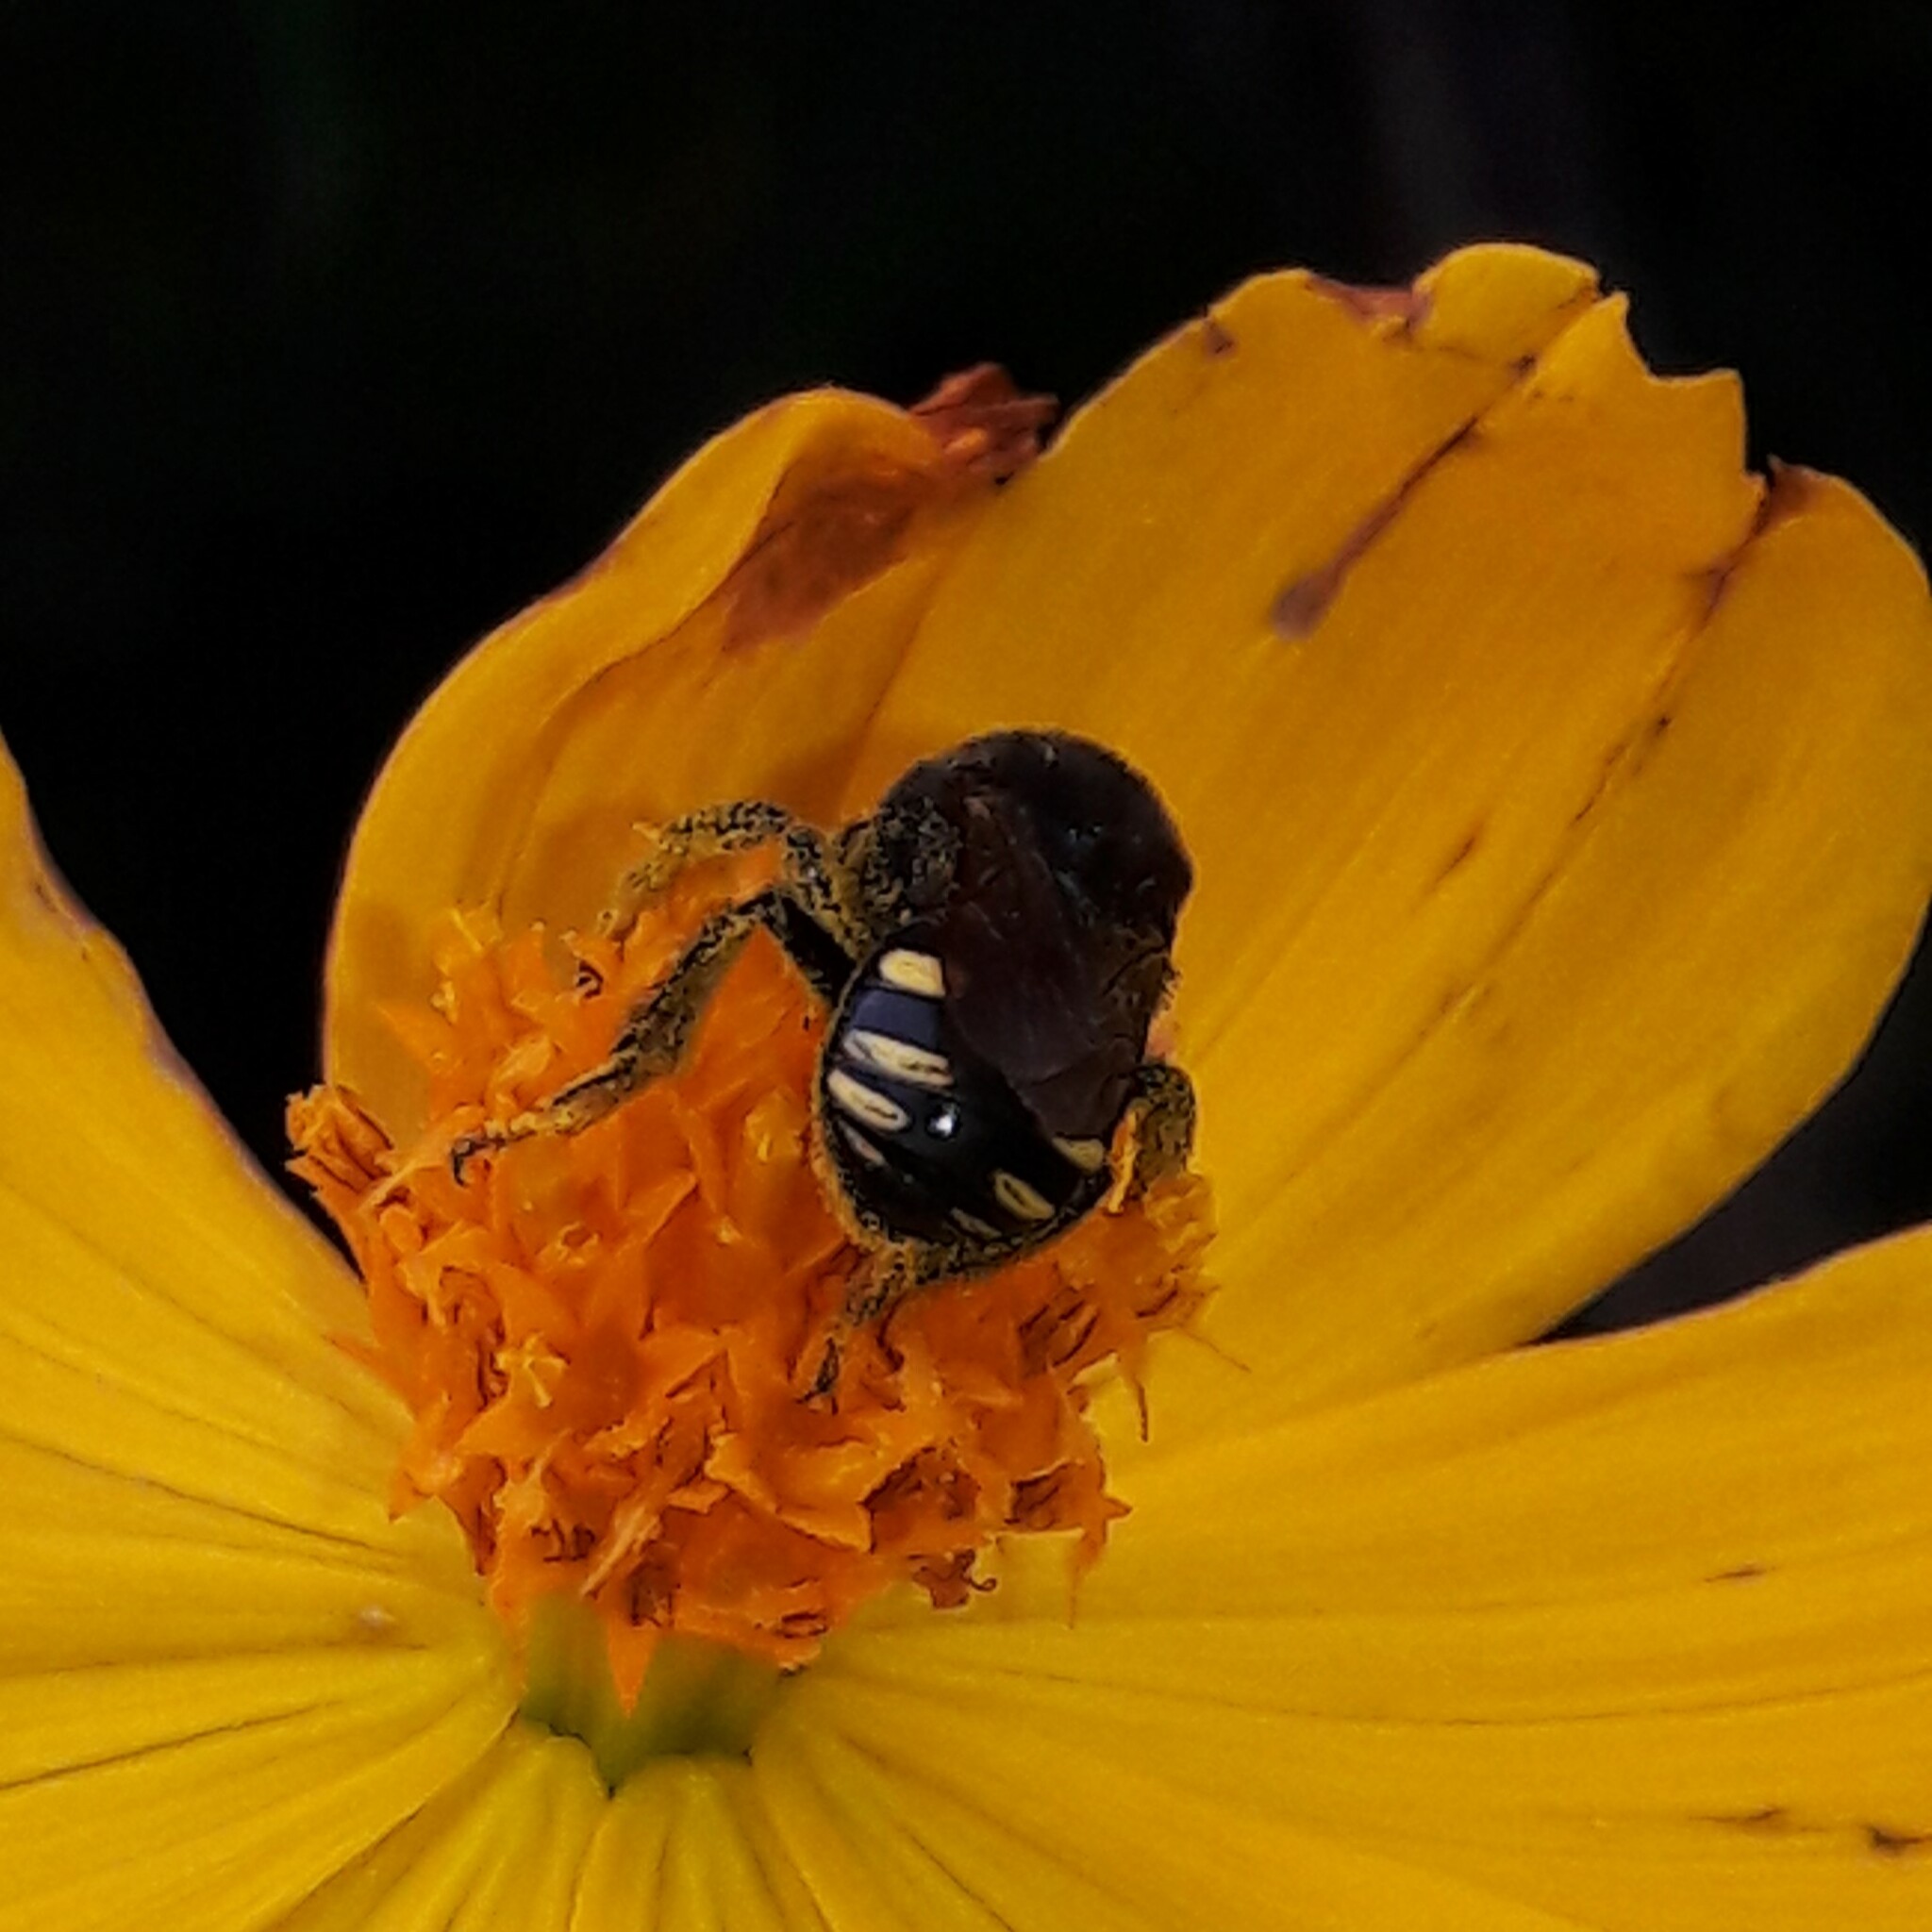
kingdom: Animalia
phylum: Arthropoda
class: Insecta
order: Hymenoptera
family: Apidae
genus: Melipona
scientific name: Melipona quadrifasciata
